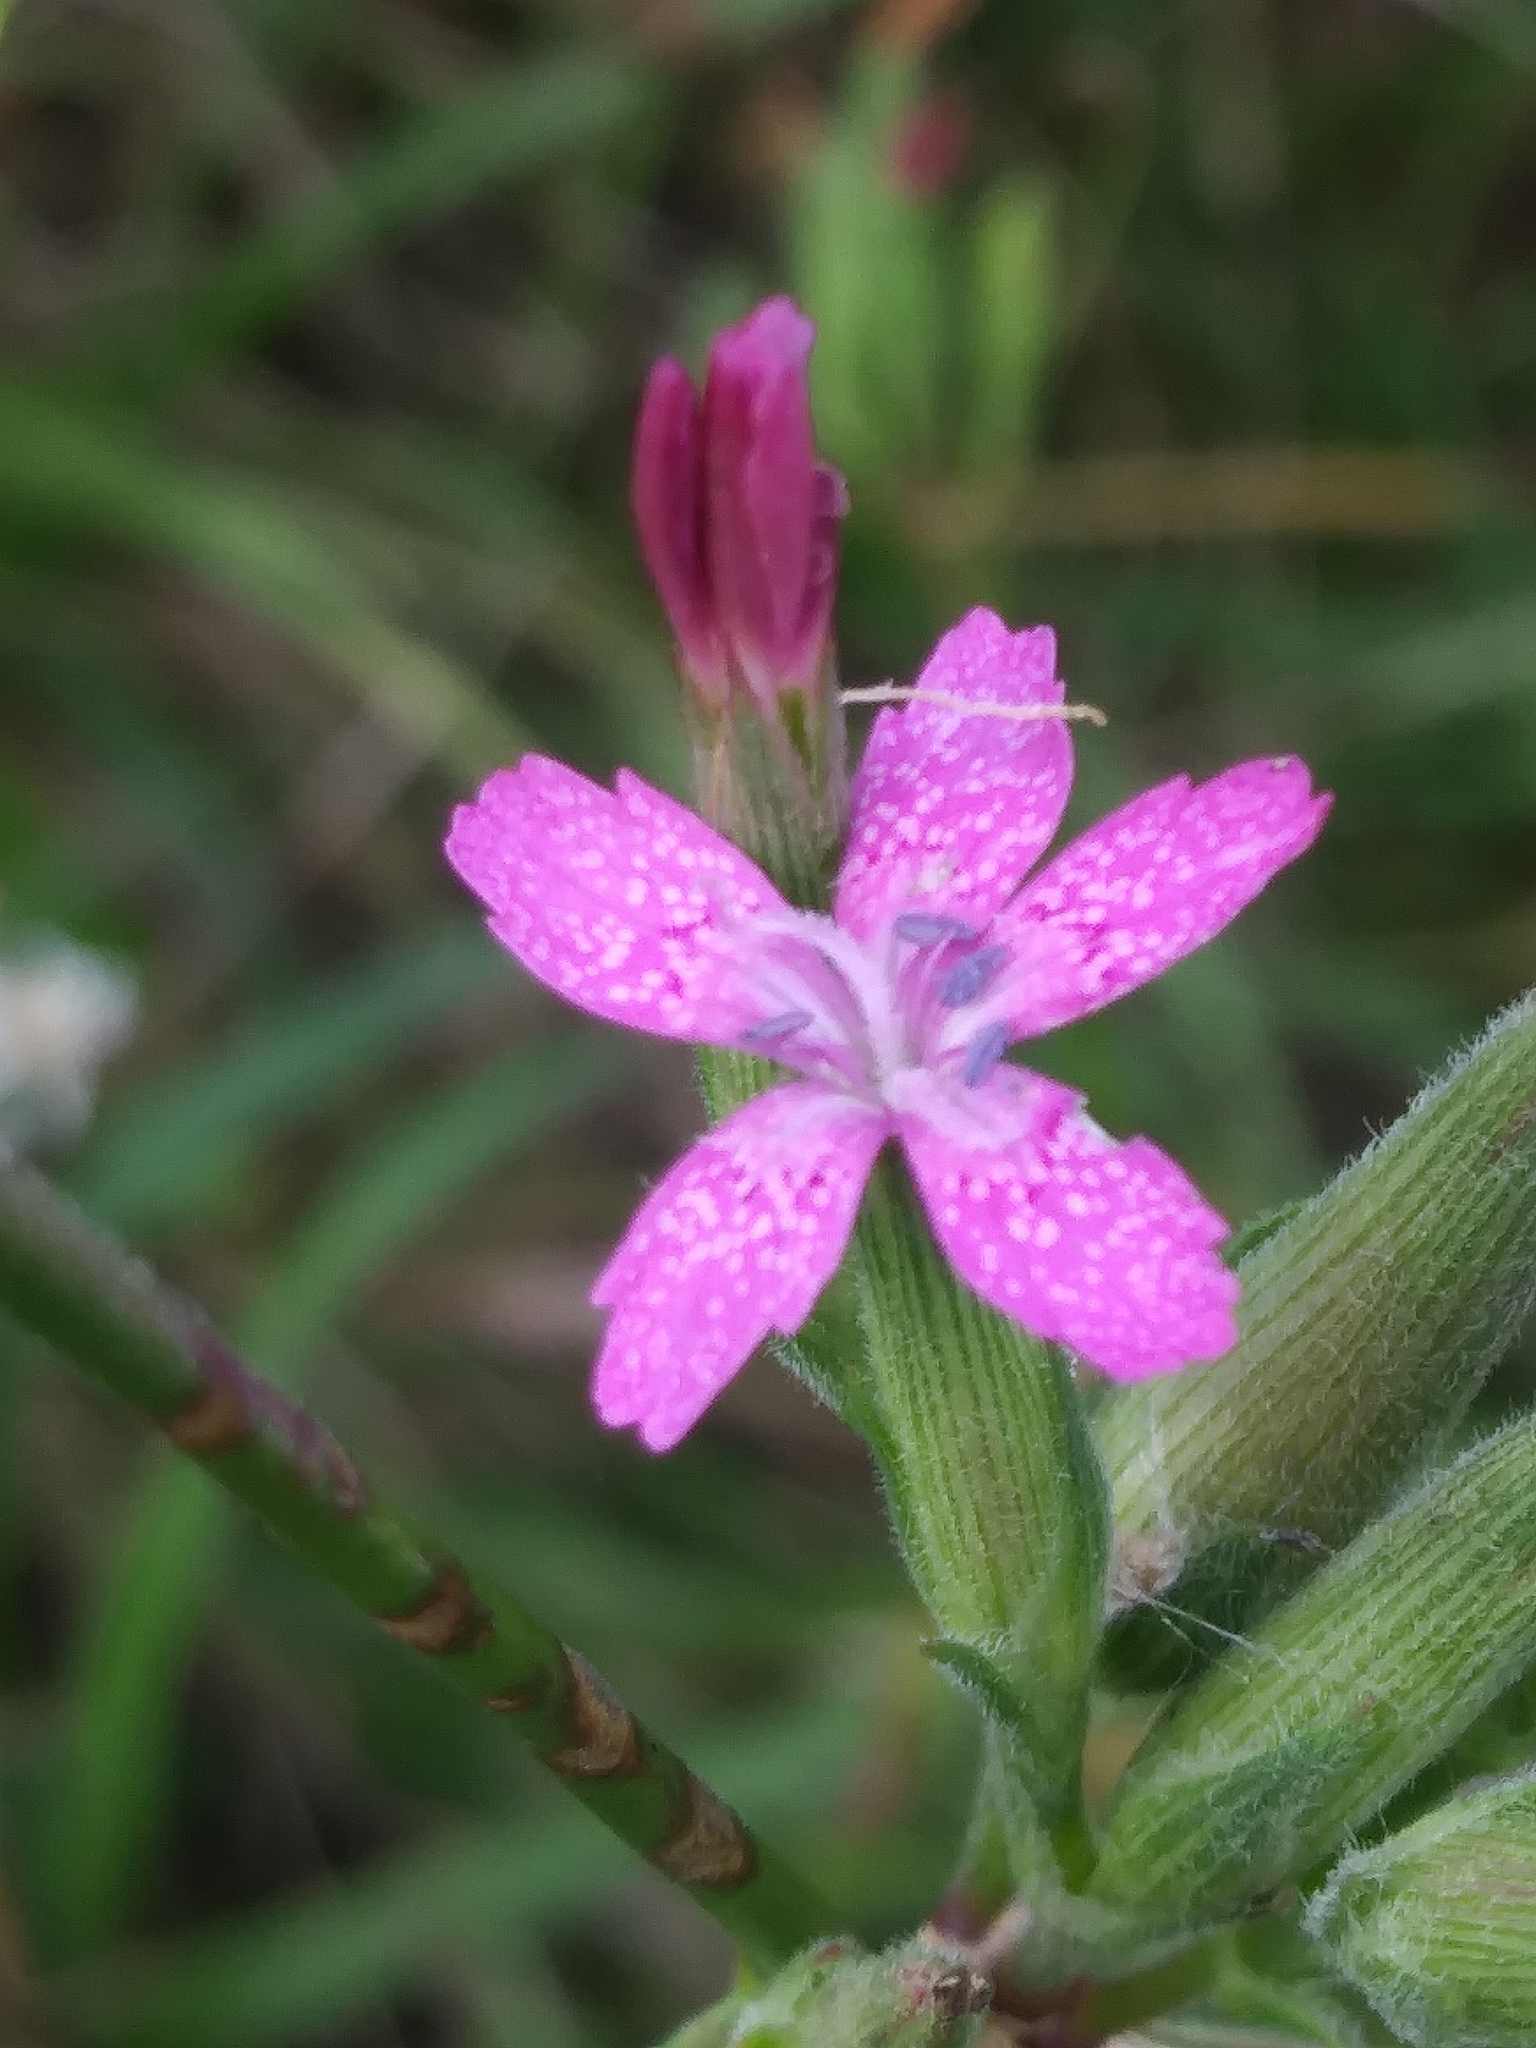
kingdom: Plantae
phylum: Tracheophyta
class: Magnoliopsida
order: Caryophyllales
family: Caryophyllaceae
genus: Dianthus
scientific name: Dianthus armeria
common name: Deptford pink
